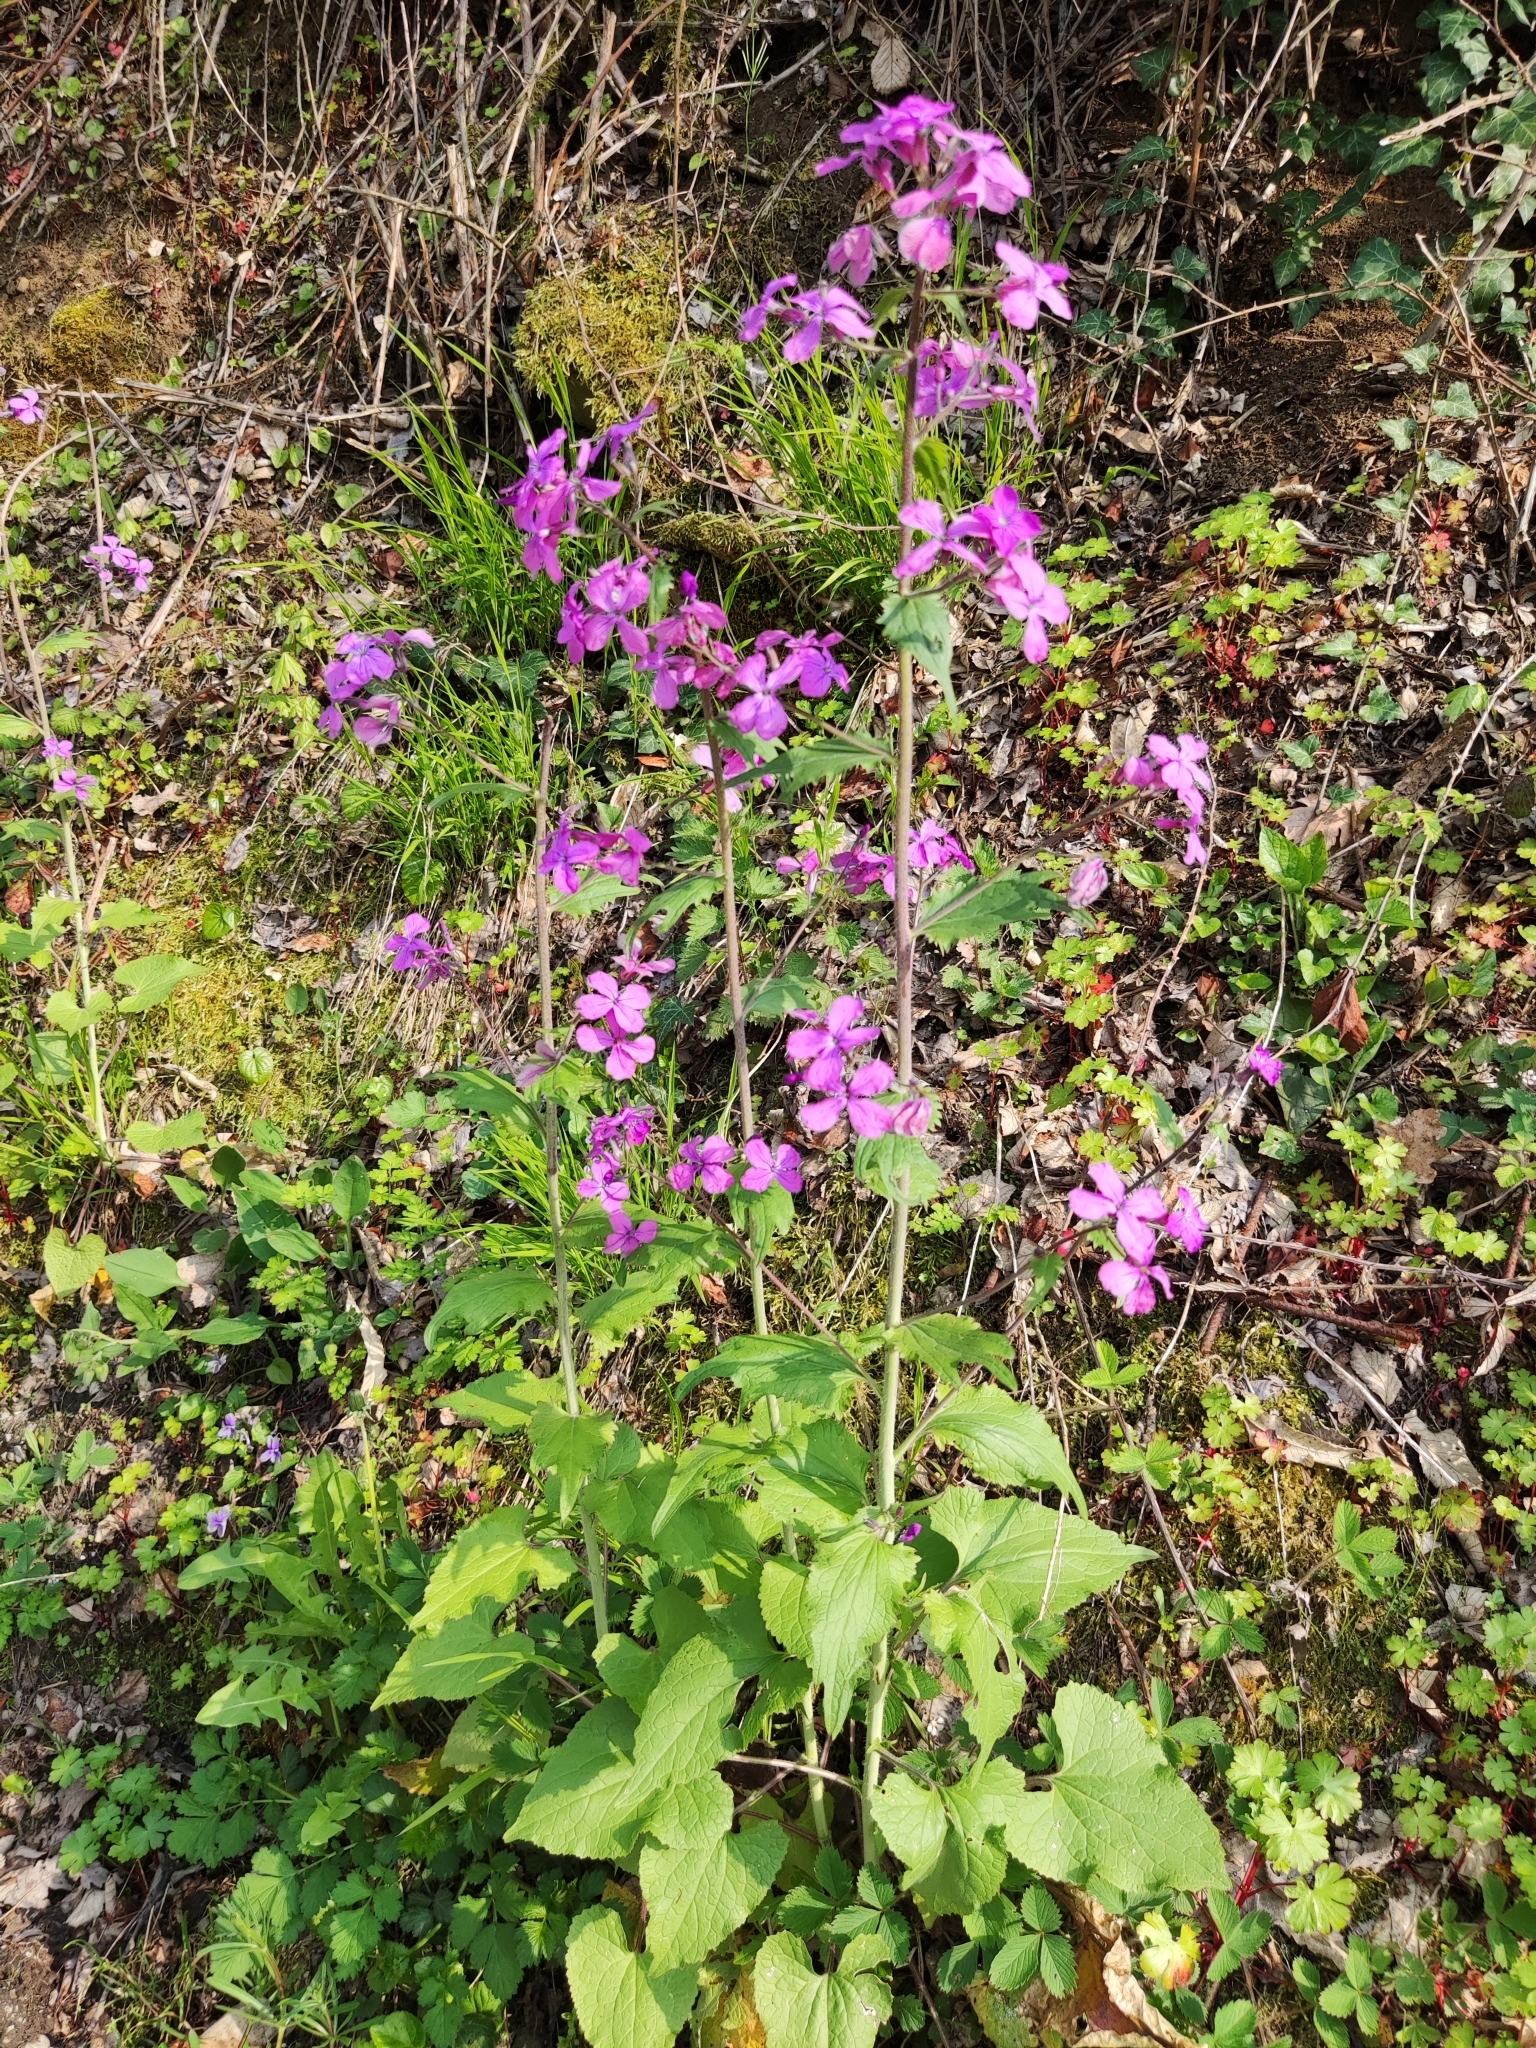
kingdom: Plantae
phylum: Tracheophyta
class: Magnoliopsida
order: Brassicales
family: Brassicaceae
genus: Lunaria
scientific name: Lunaria annua
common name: Honesty
